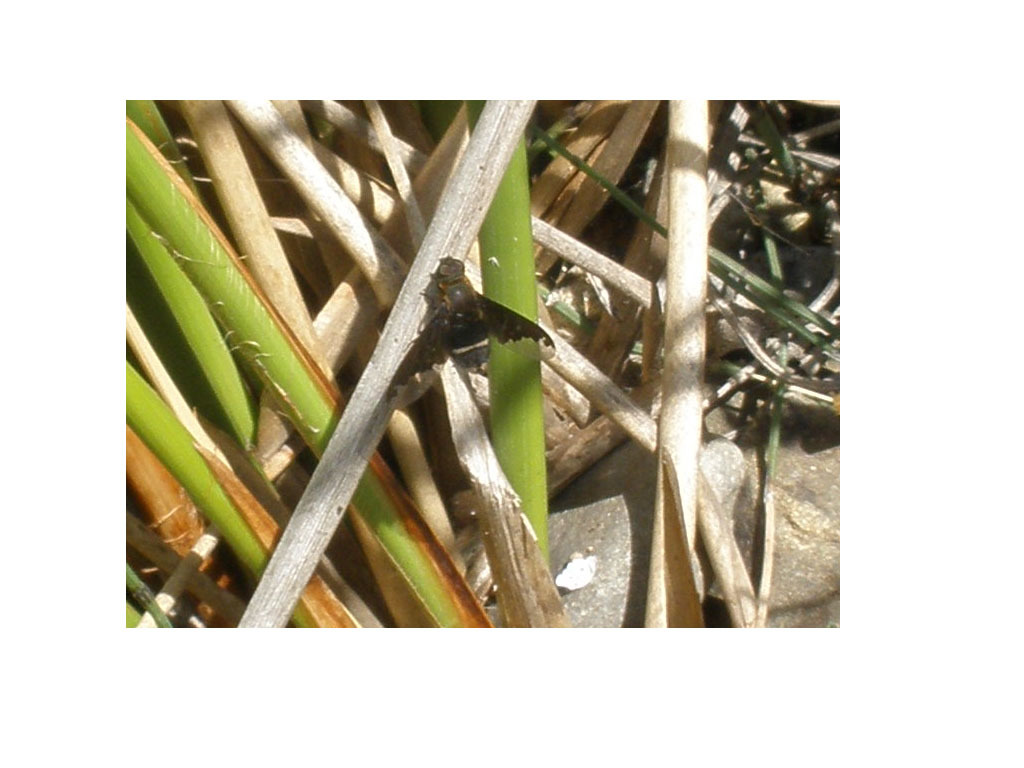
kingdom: Animalia
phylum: Arthropoda
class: Insecta
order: Diptera
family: Bombyliidae
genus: Hemipenthes
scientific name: Hemipenthes velutina
